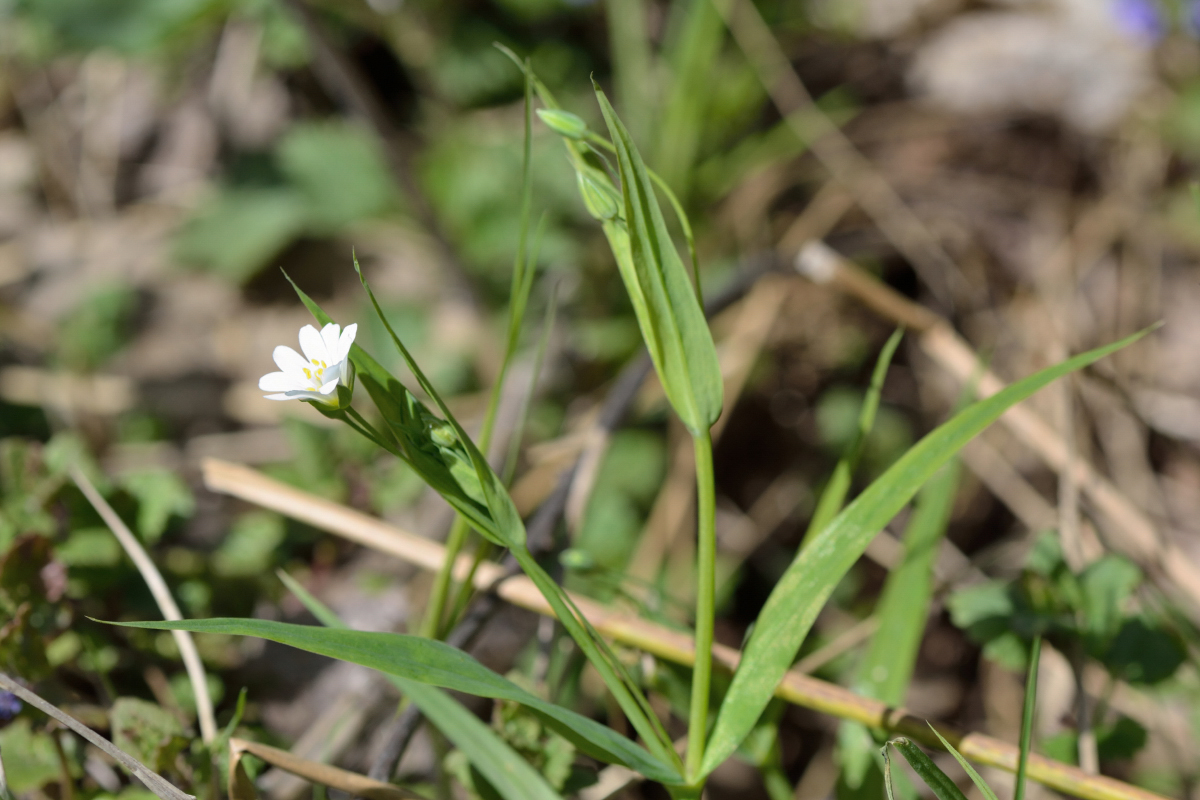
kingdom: Plantae
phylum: Tracheophyta
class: Magnoliopsida
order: Caryophyllales
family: Caryophyllaceae
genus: Rabelera
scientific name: Rabelera holostea
